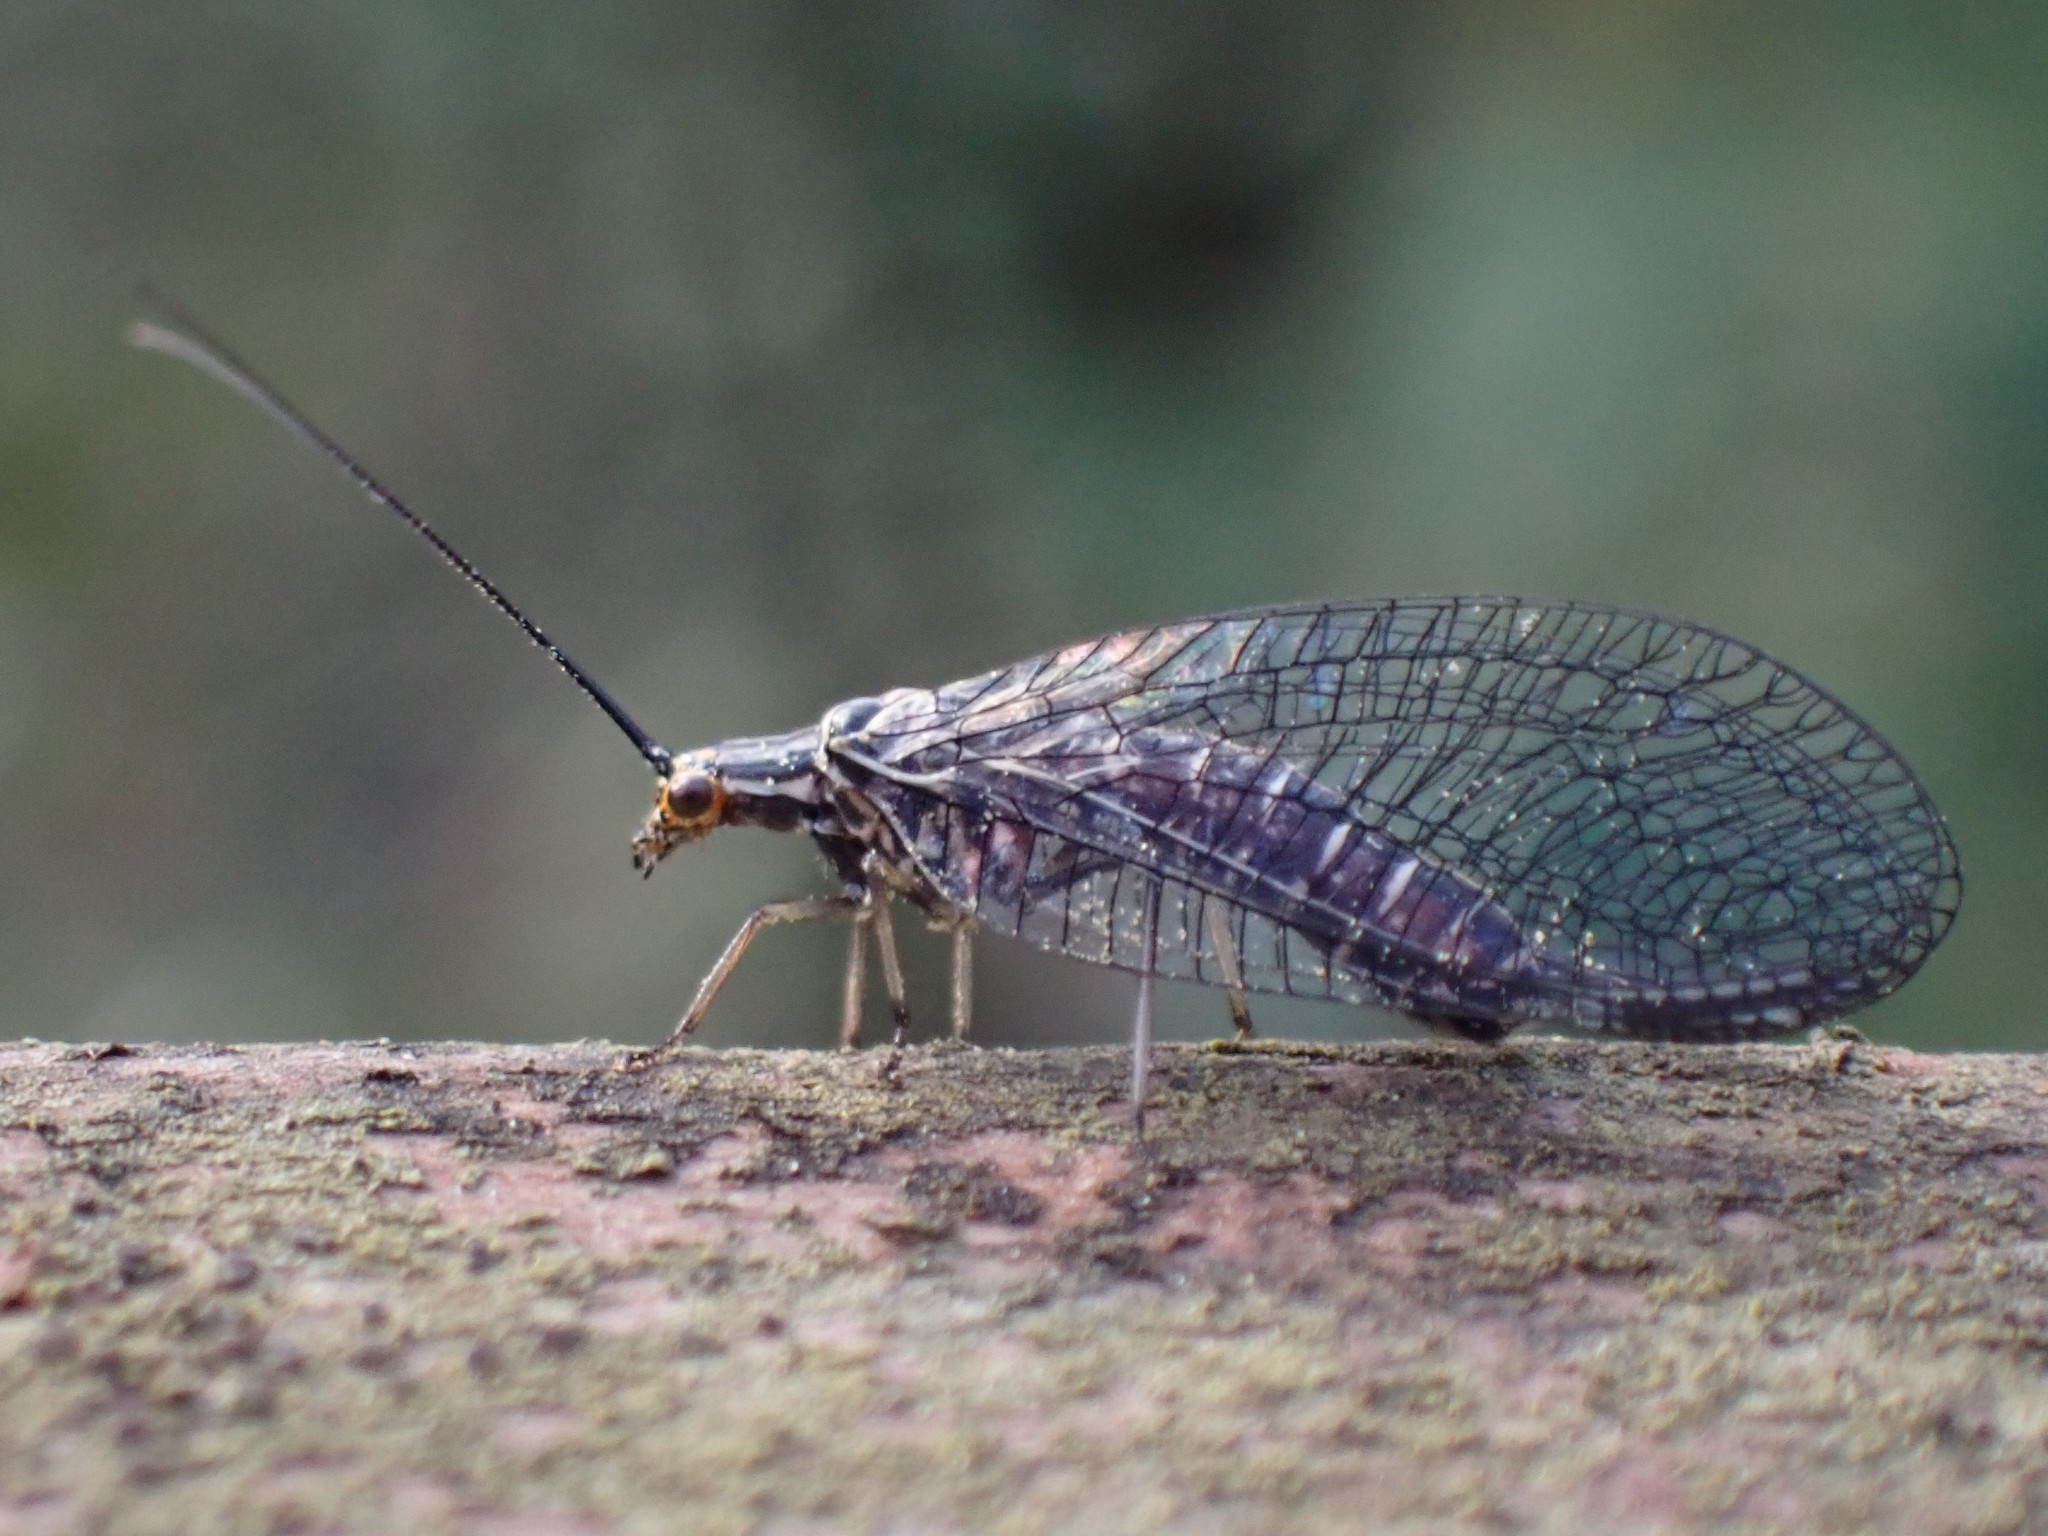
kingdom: Animalia
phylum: Arthropoda
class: Insecta
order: Neuroptera
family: Chrysopidae
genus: Nothochrysa
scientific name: Nothochrysa californica
